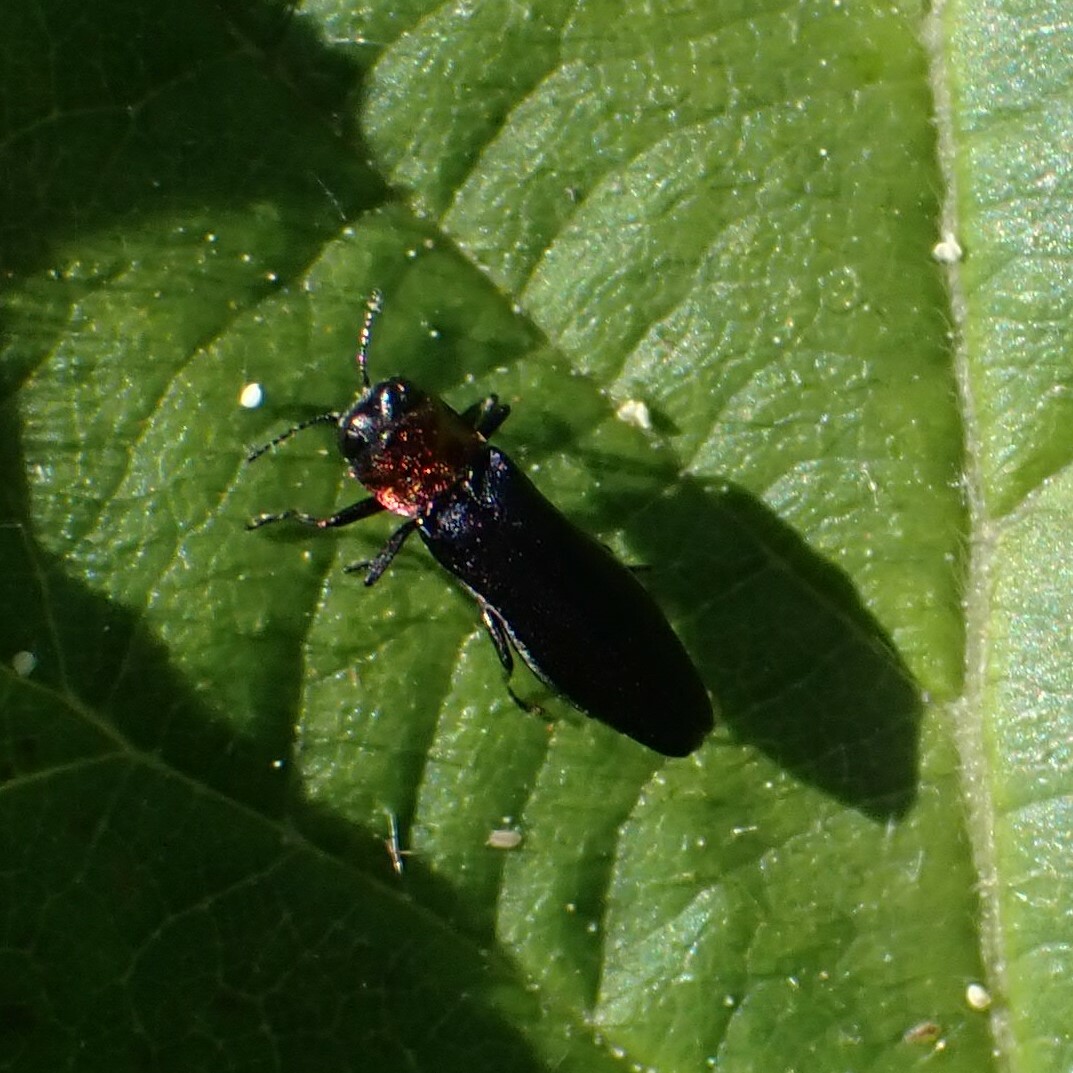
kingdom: Animalia
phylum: Arthropoda
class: Insecta
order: Coleoptera
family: Buprestidae
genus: Agrilus
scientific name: Agrilus ruficollis
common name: Red-necked cane borer beetle
